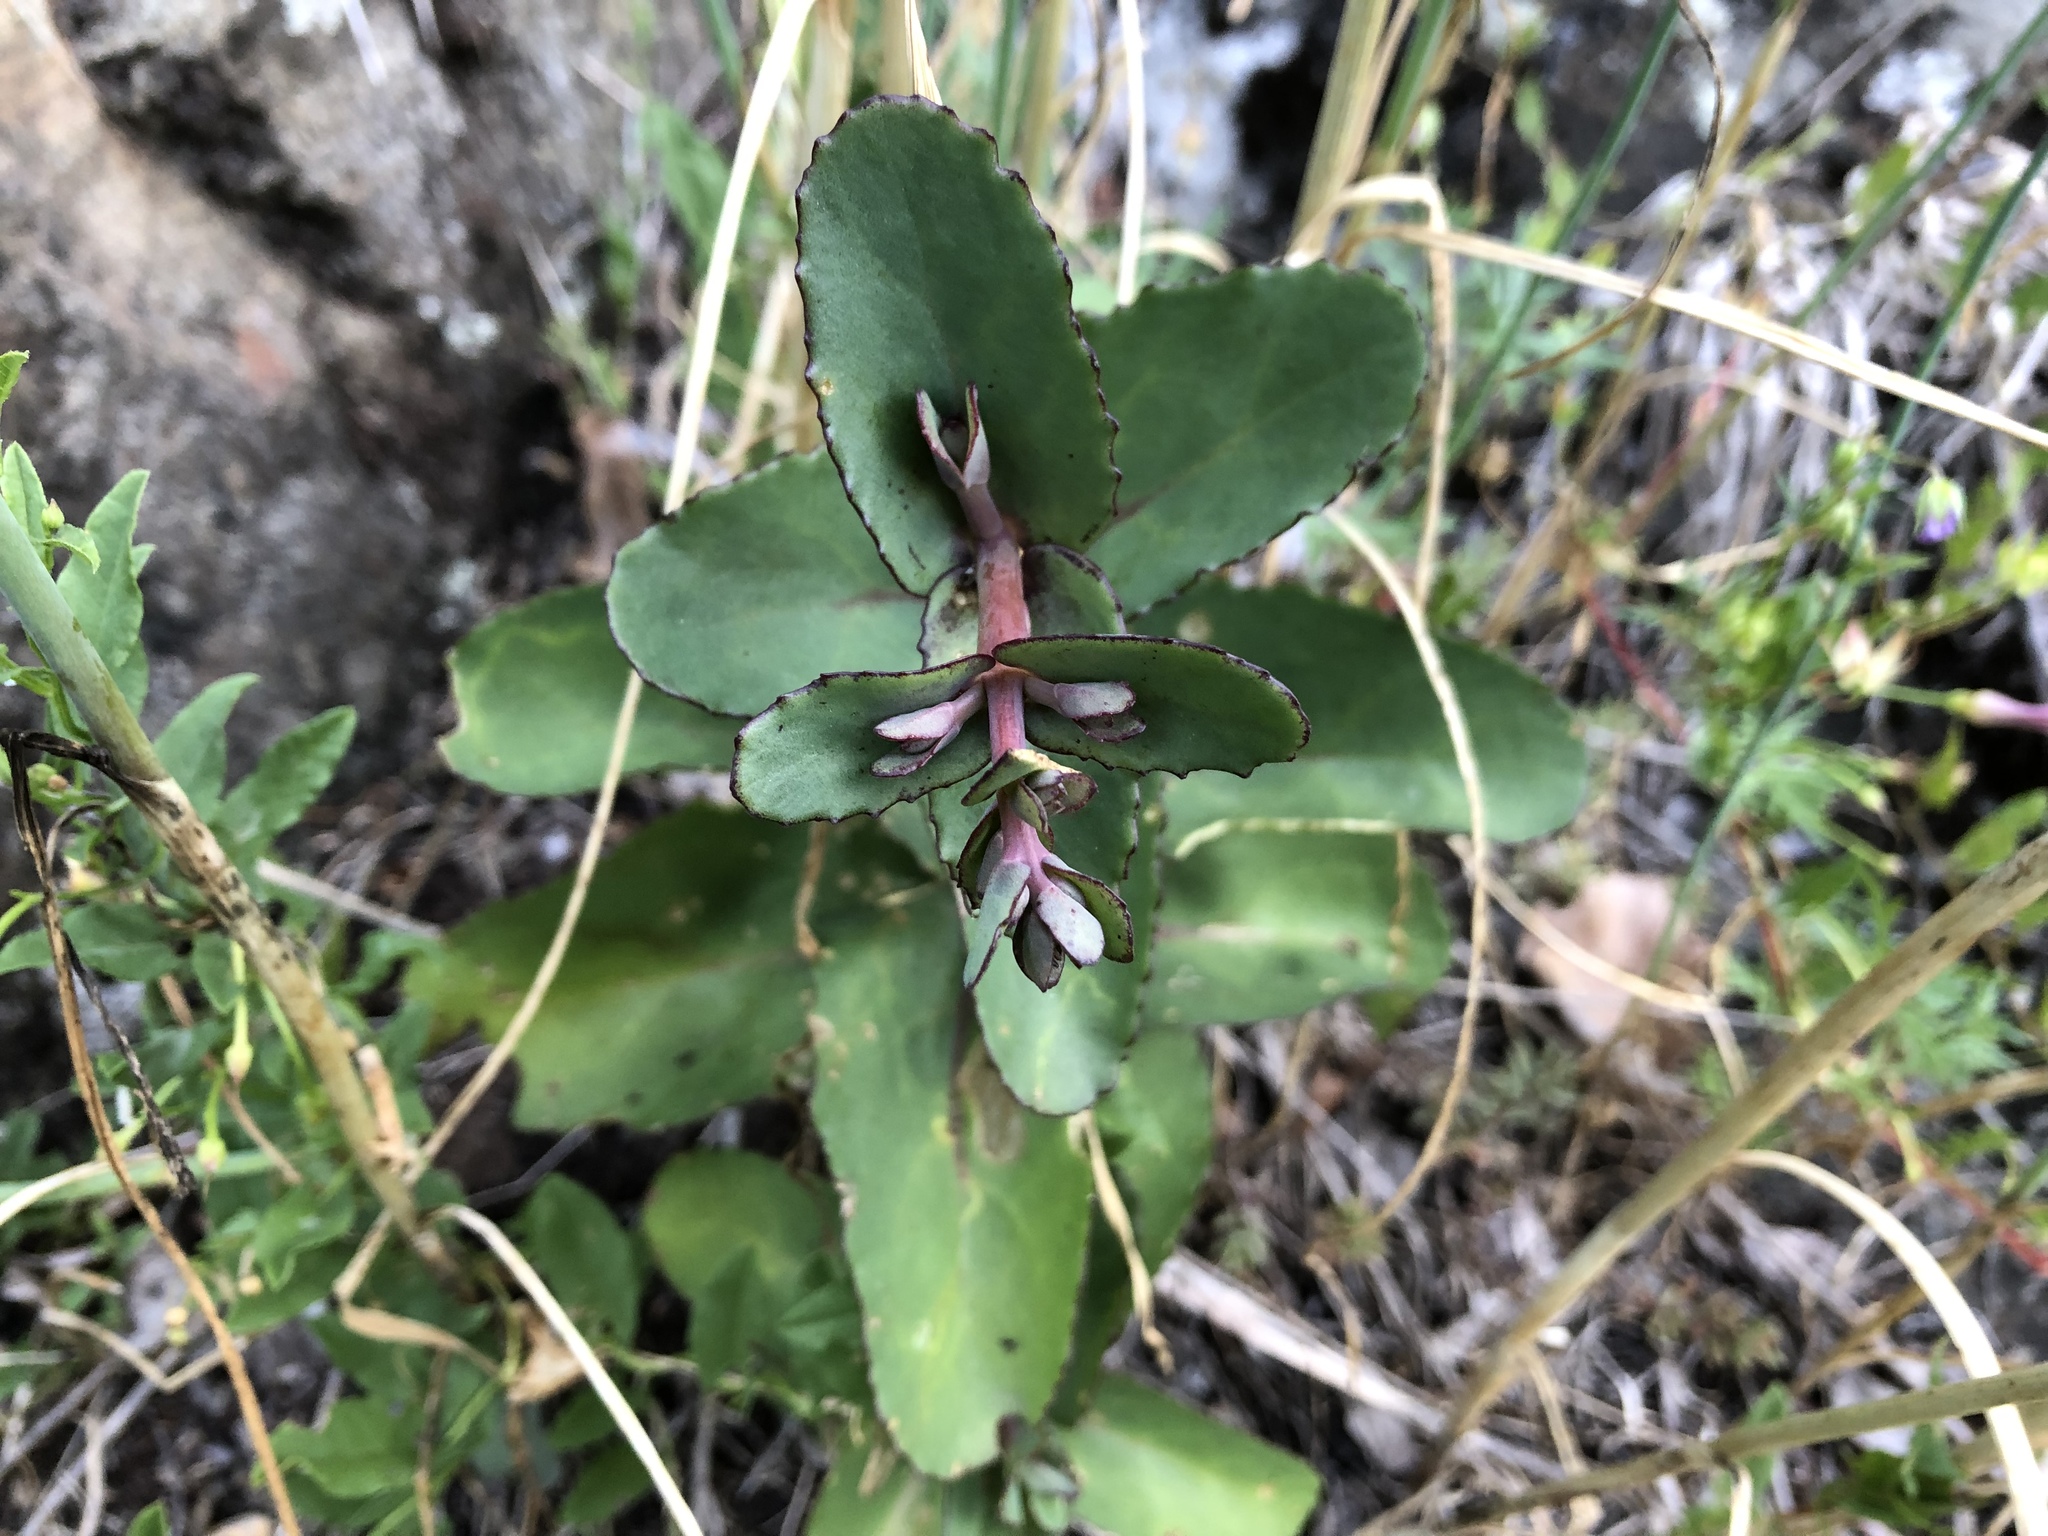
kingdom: Plantae
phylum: Tracheophyta
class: Magnoliopsida
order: Saxifragales
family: Crassulaceae
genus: Hylotelephium
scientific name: Hylotelephium maximum
